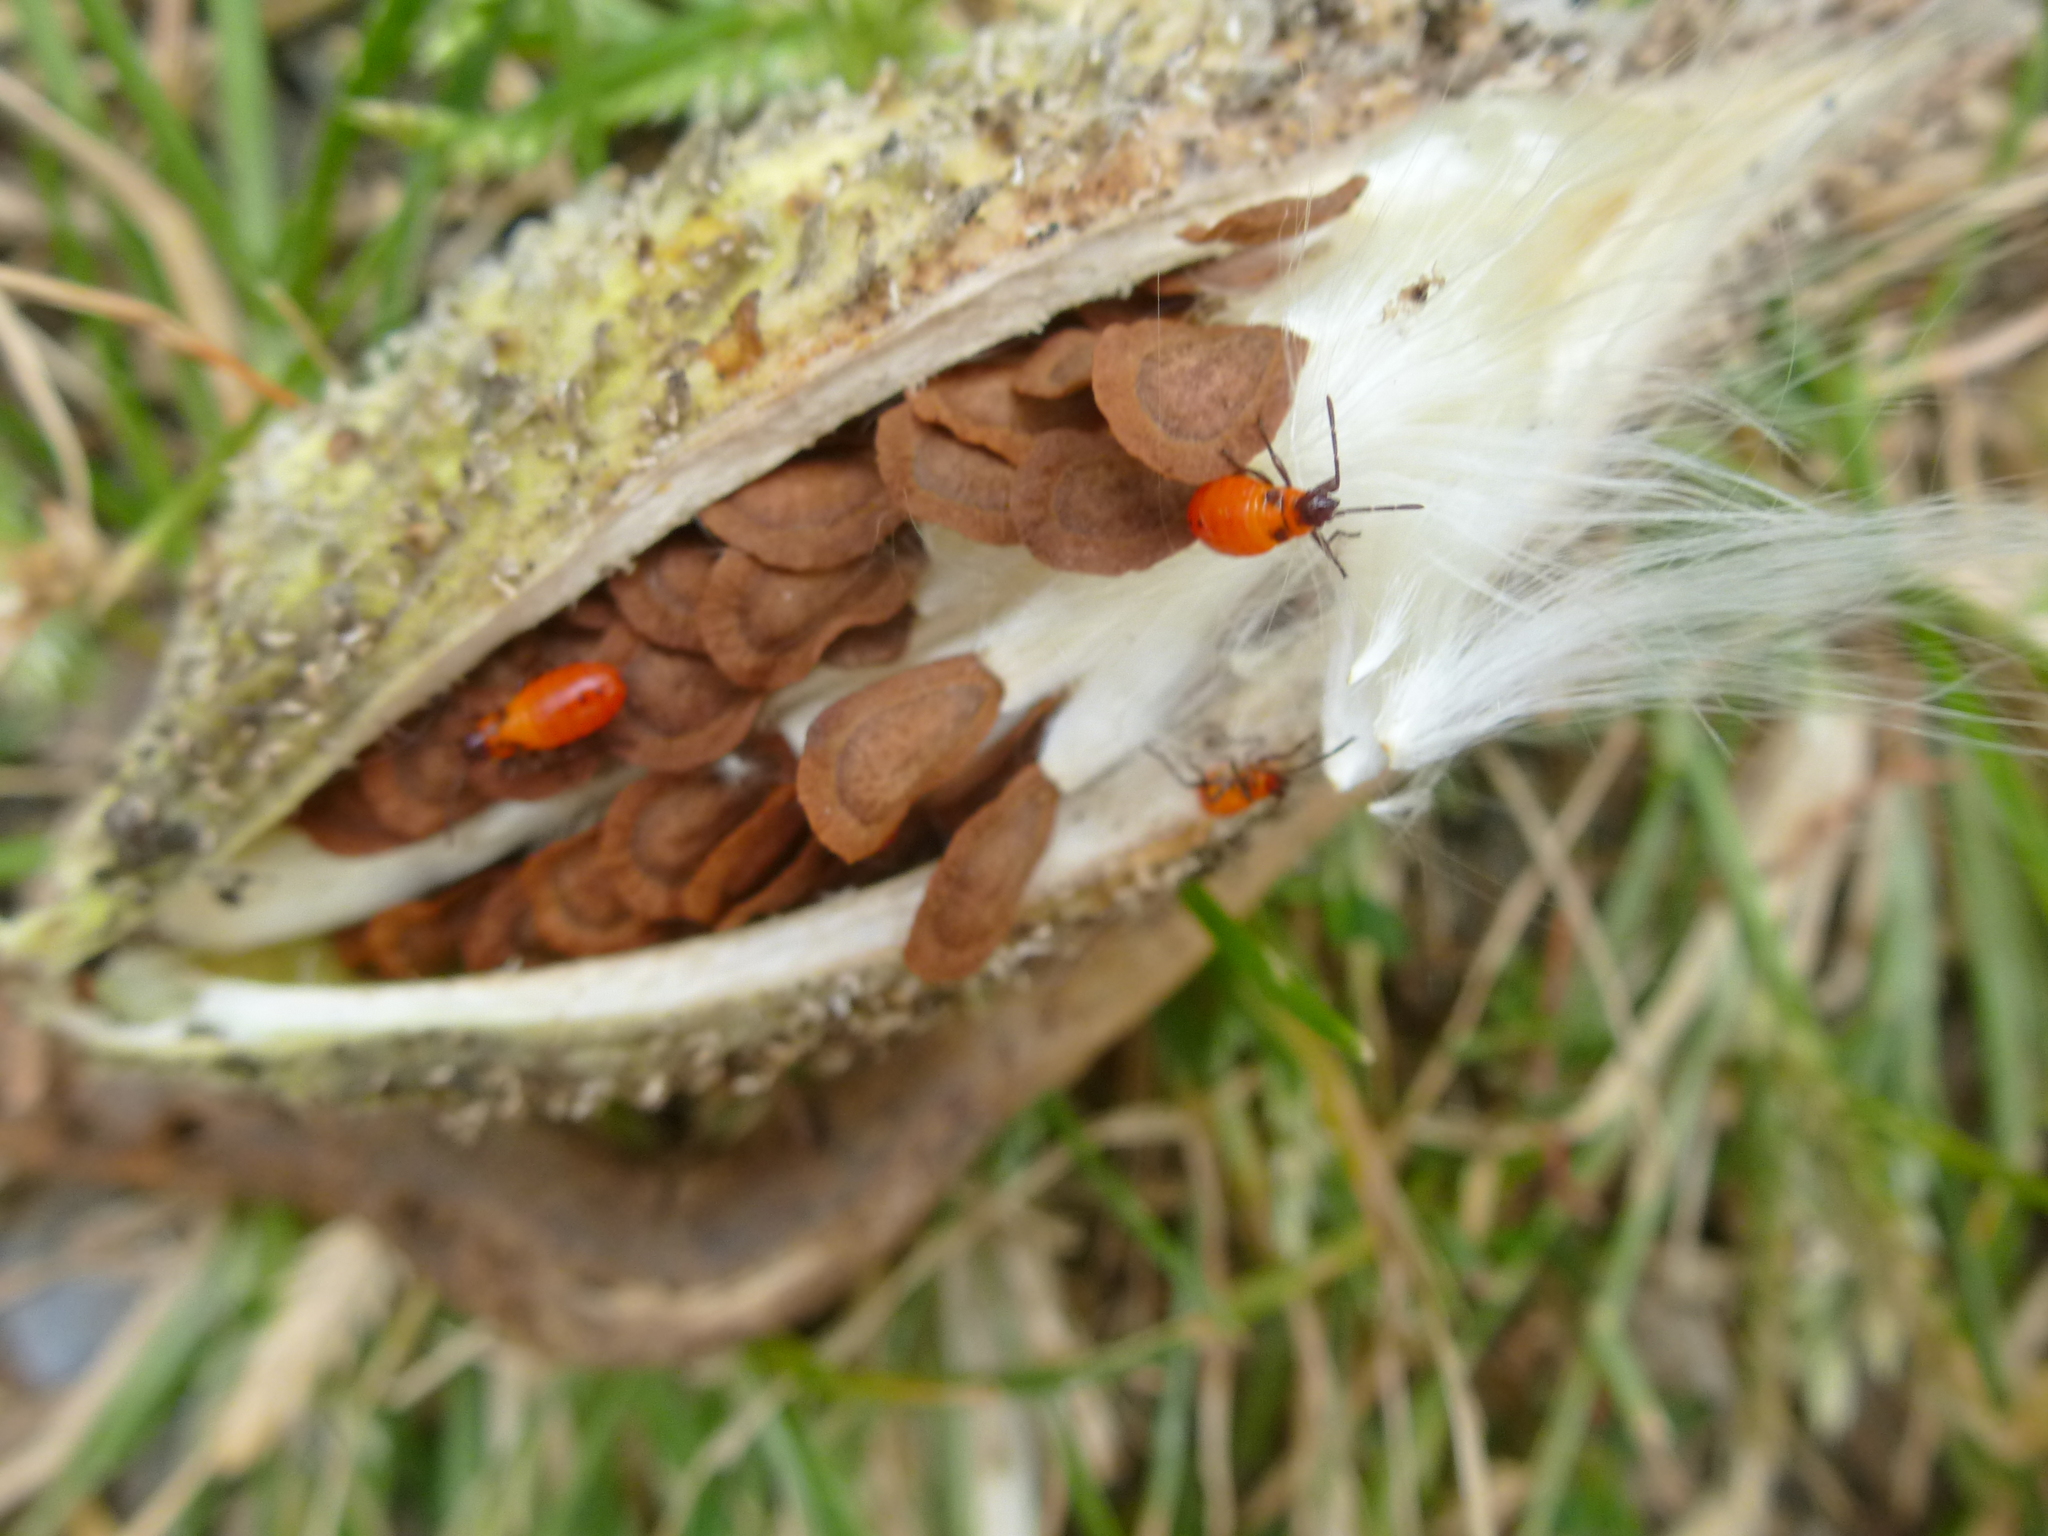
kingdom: Animalia
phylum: Arthropoda
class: Insecta
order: Hemiptera
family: Lygaeidae
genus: Oncopeltus
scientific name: Oncopeltus fasciatus
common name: Large milkweed bug
